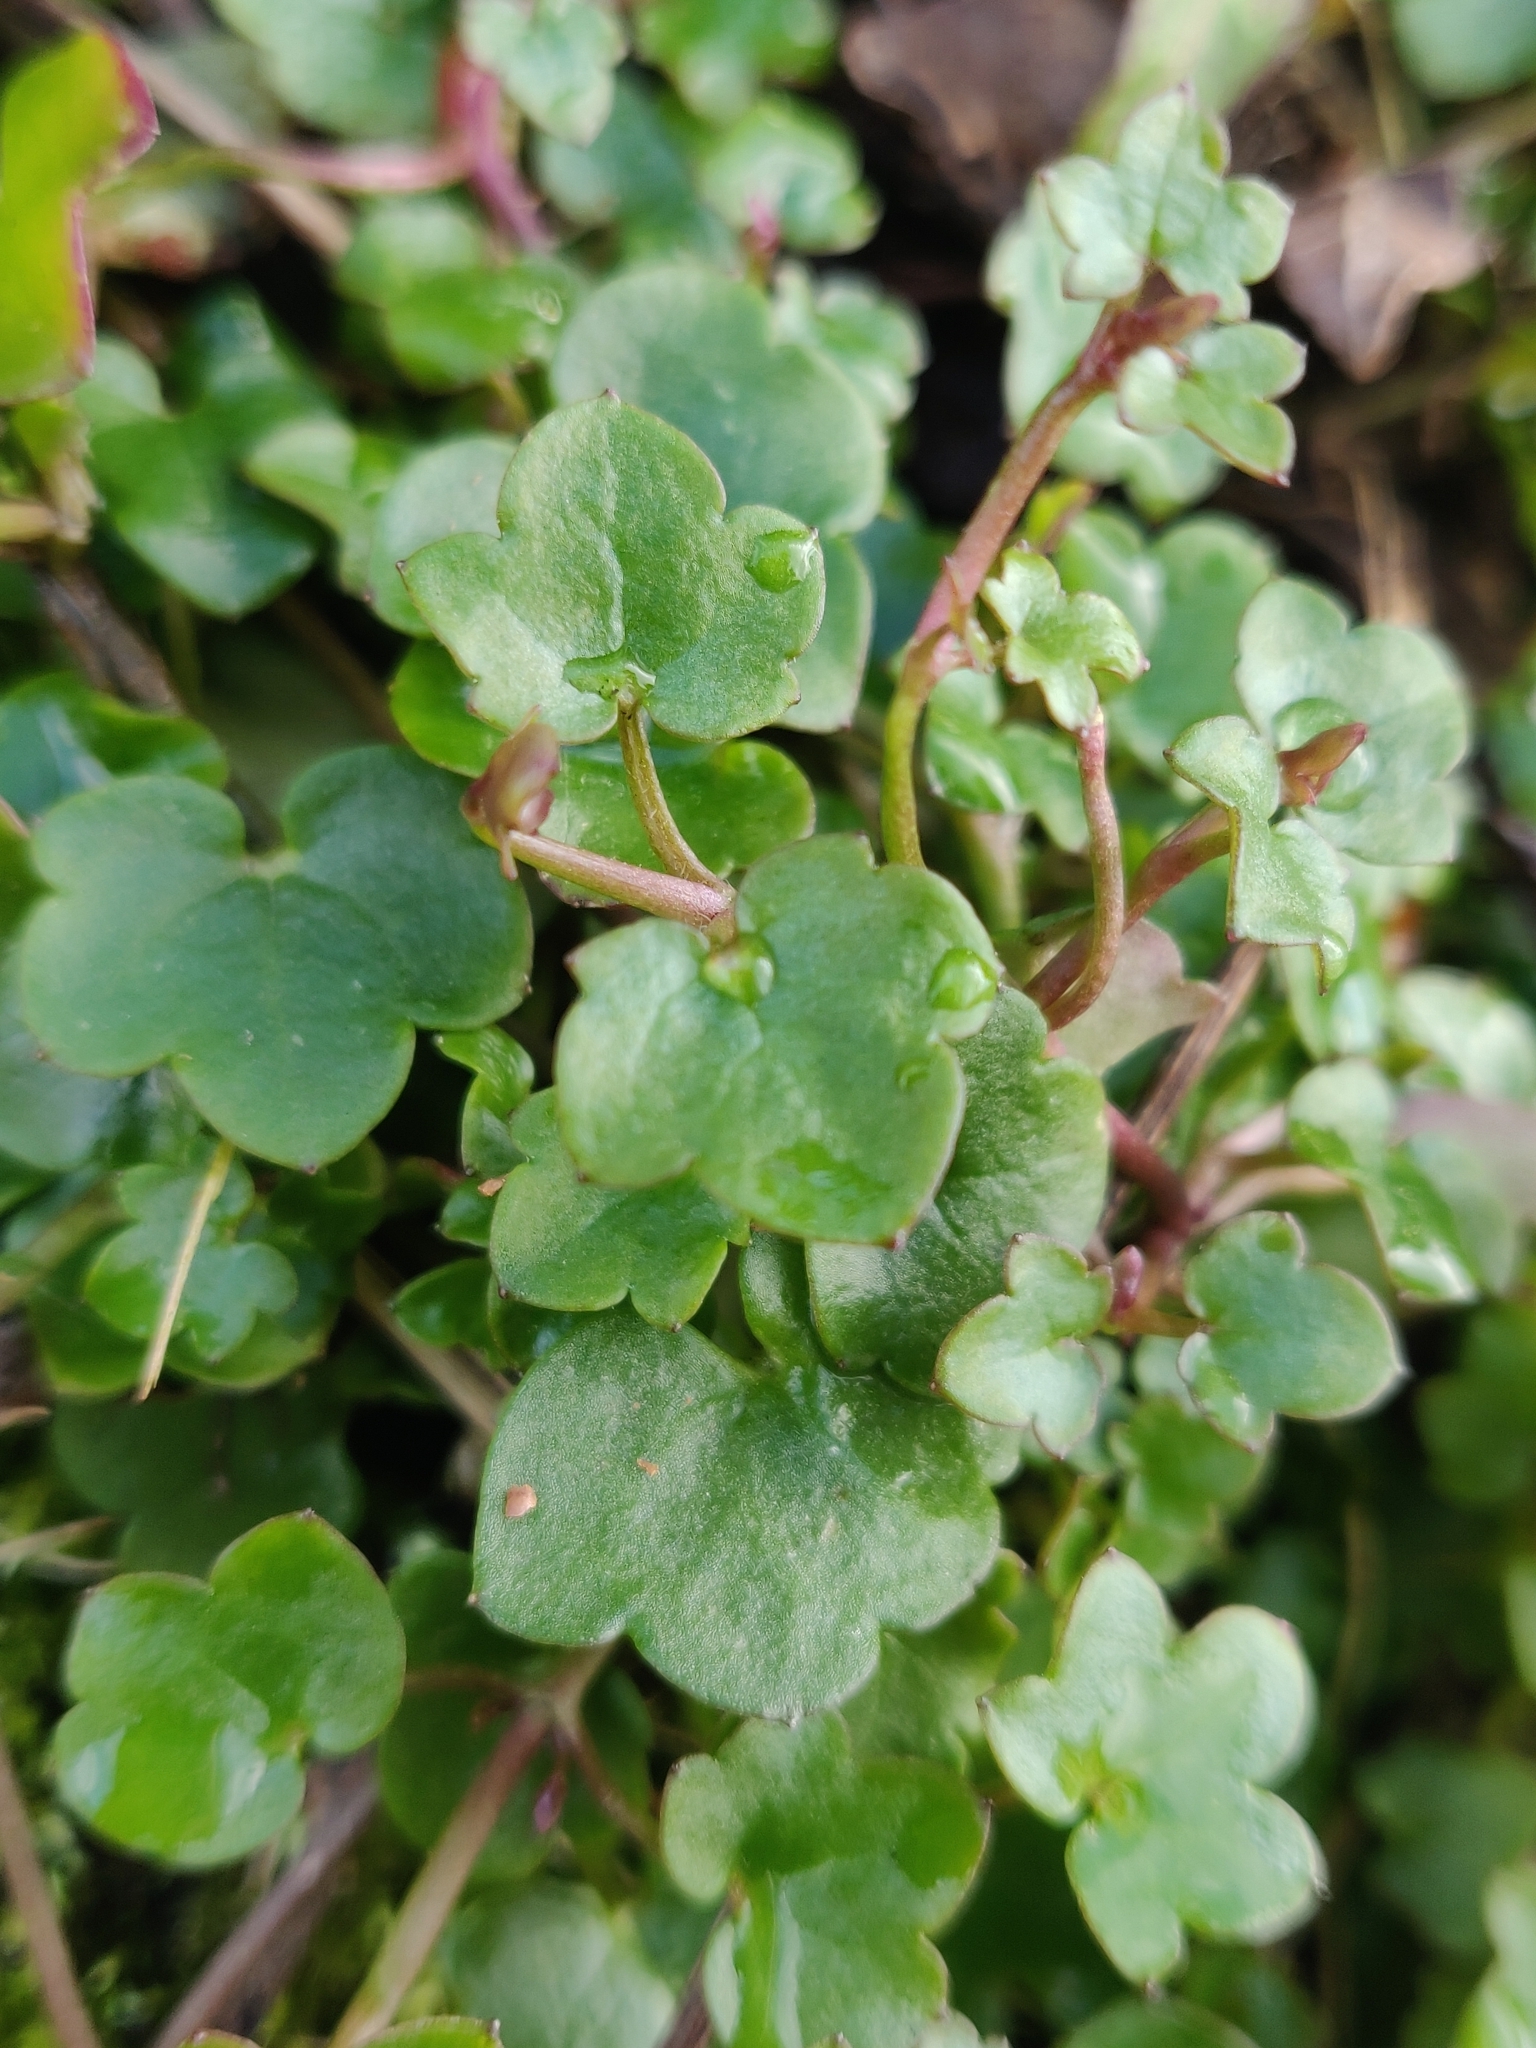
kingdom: Plantae
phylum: Tracheophyta
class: Magnoliopsida
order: Lamiales
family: Plantaginaceae
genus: Cymbalaria
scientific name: Cymbalaria muralis
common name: Ivy-leaved toadflax
